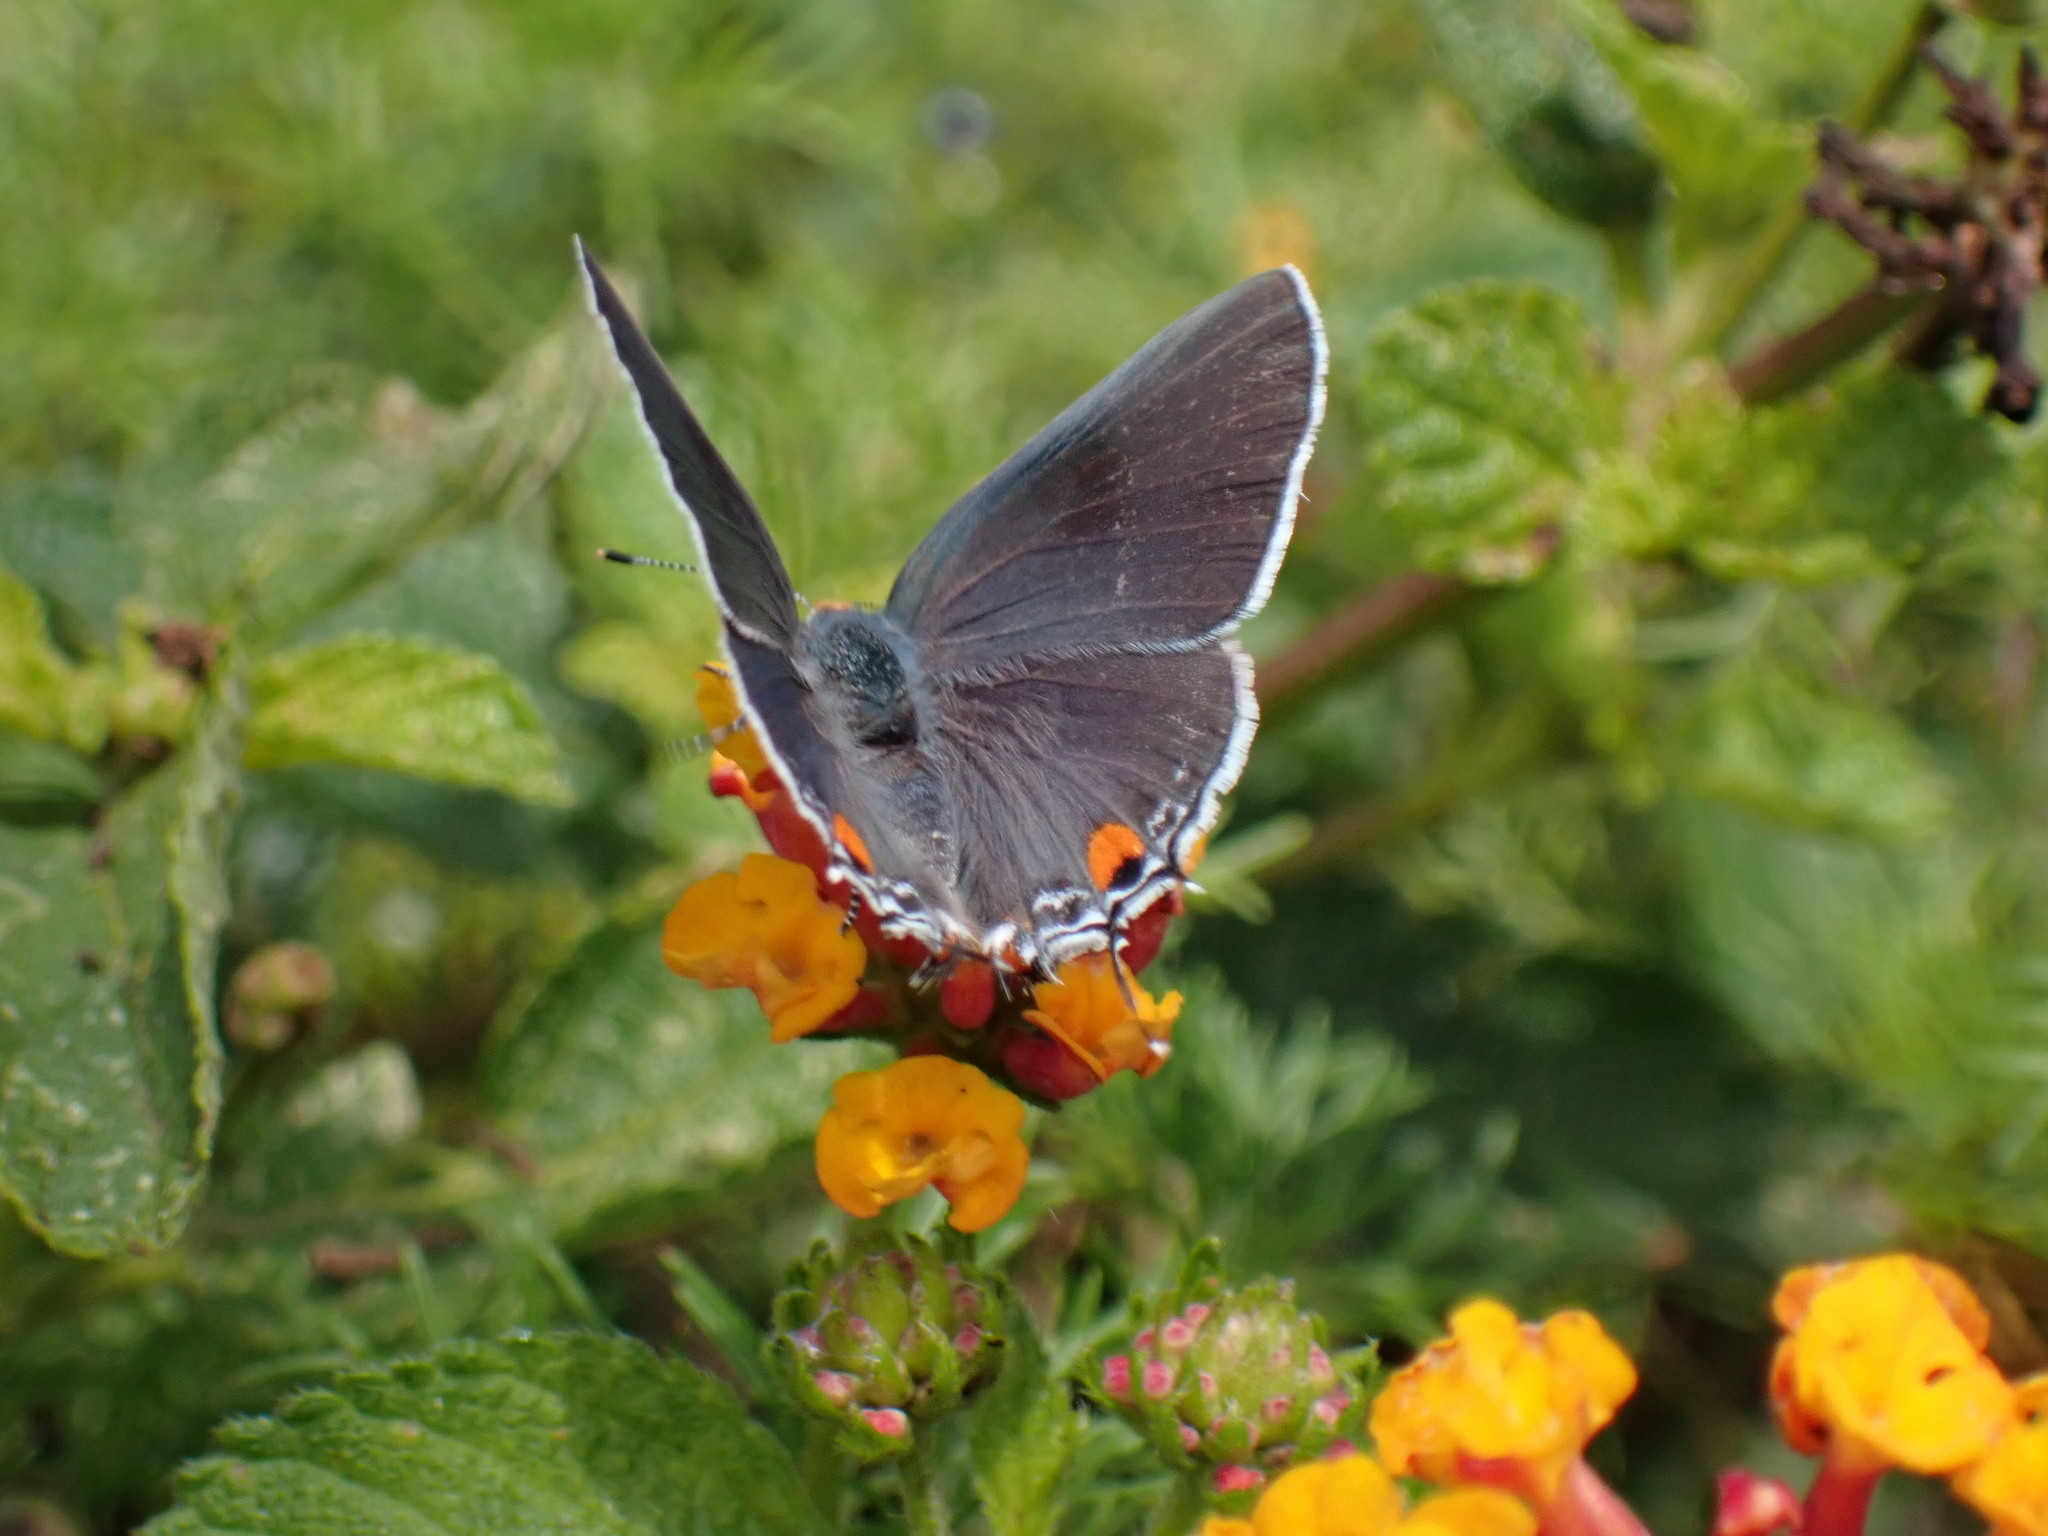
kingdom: Animalia
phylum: Arthropoda
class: Insecta
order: Lepidoptera
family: Lycaenidae
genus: Strymon
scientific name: Strymon melinus
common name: Gray hairstreak
